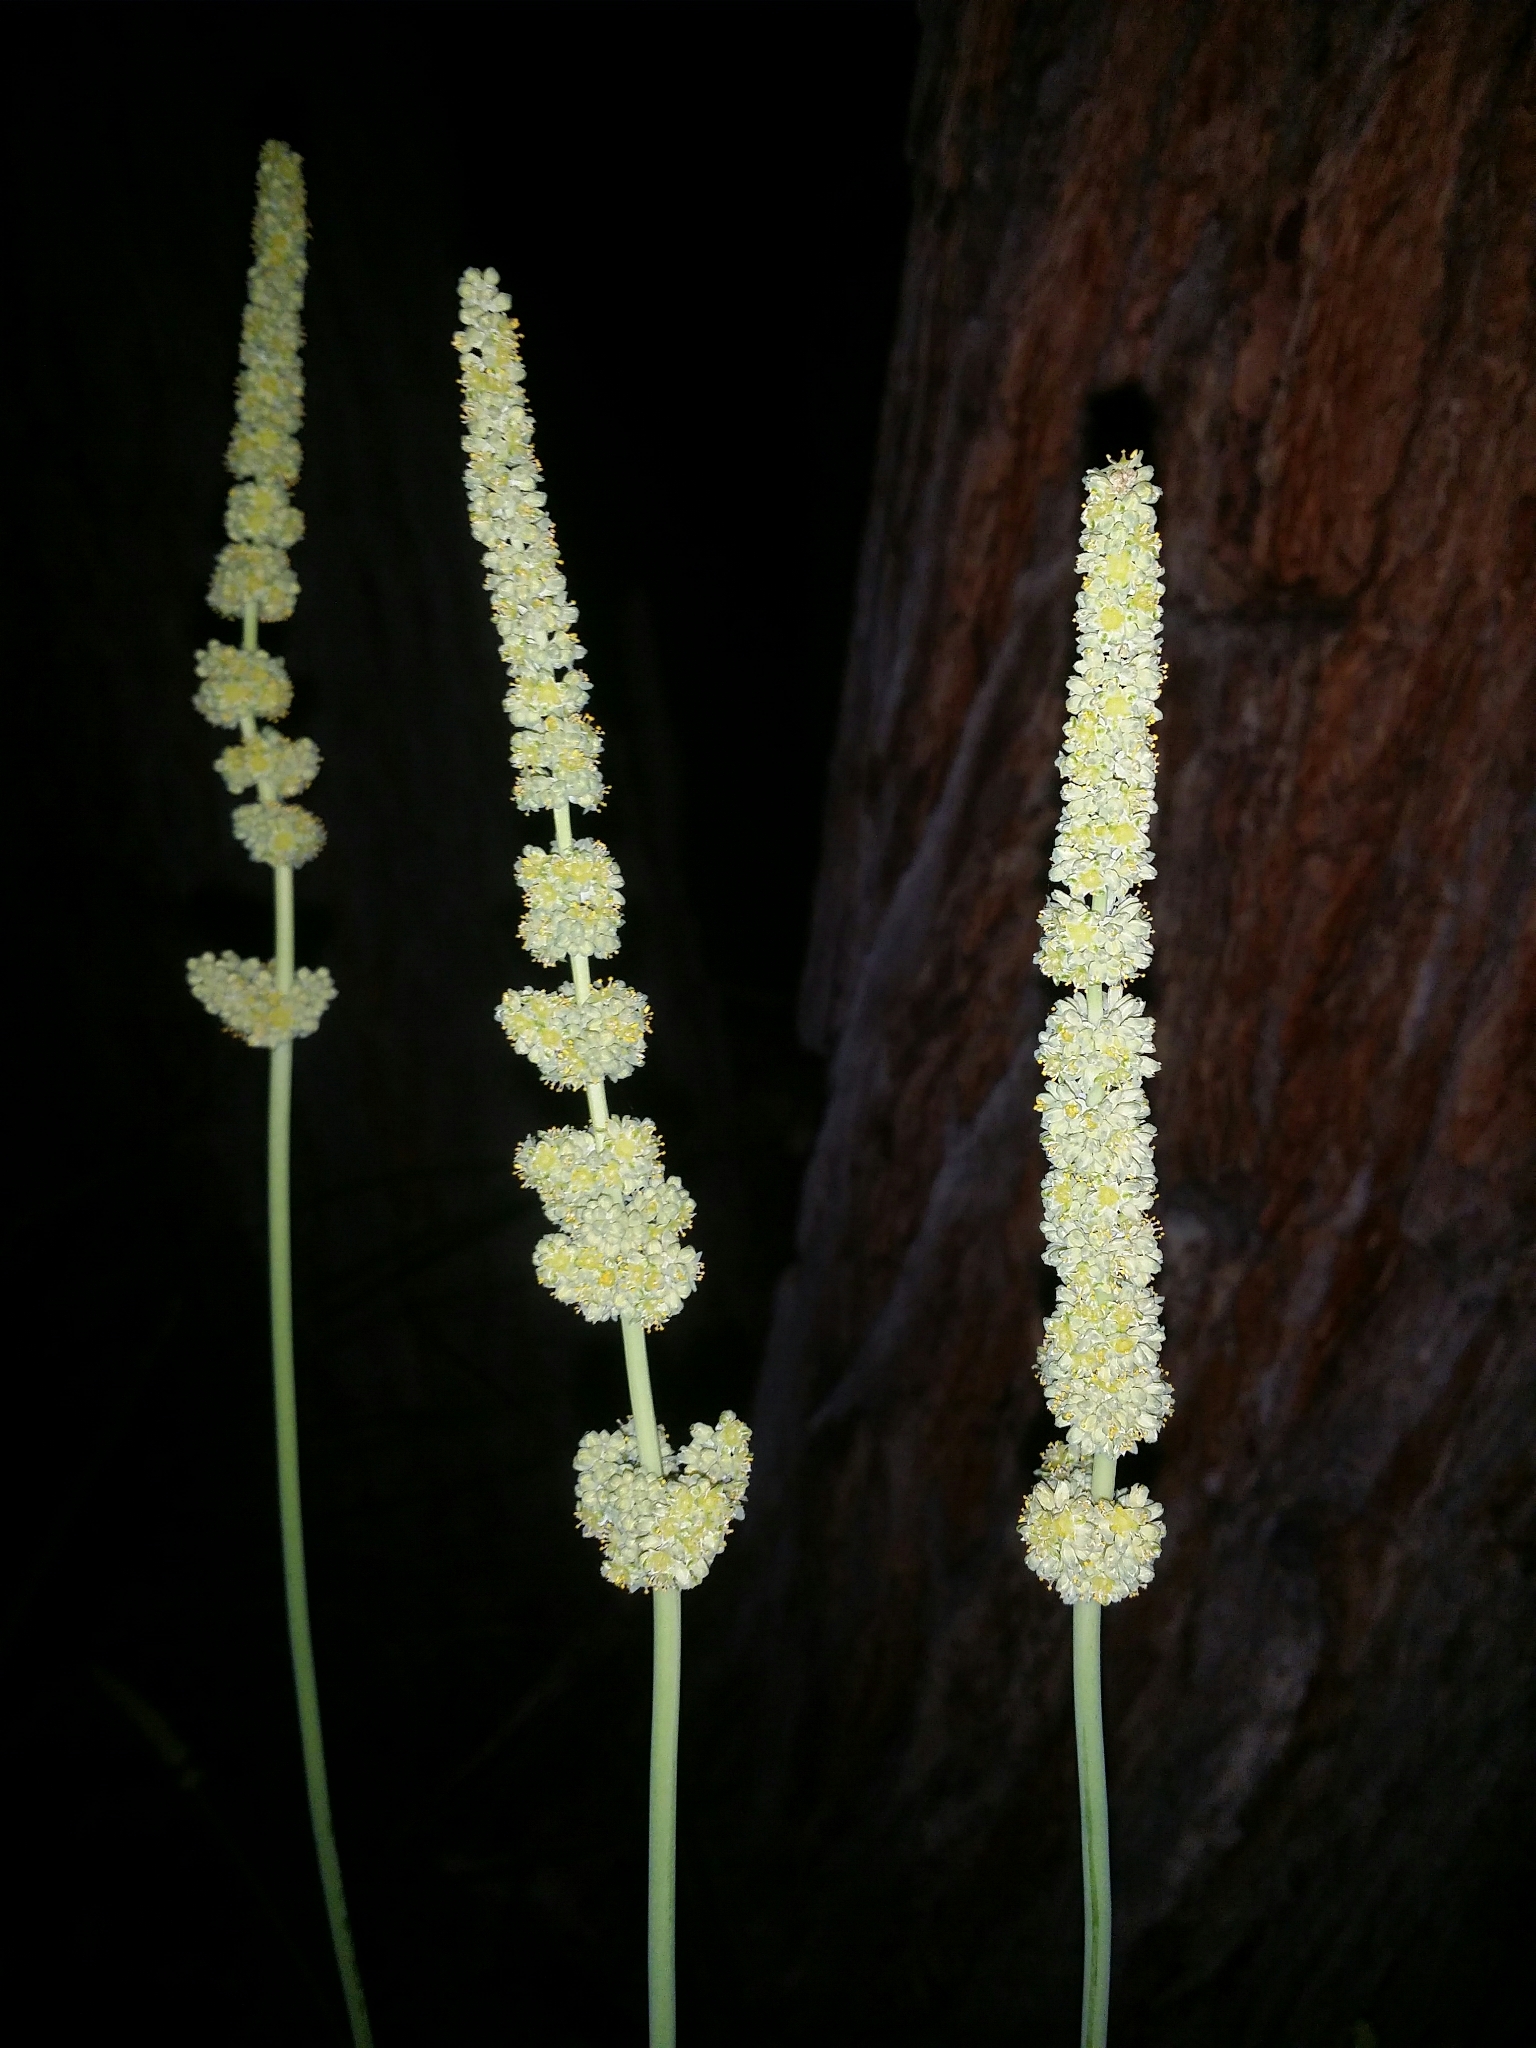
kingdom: Plantae
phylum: Tracheophyta
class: Liliopsida
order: Asparagales
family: Asparagaceae
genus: Lomandra
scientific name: Lomandra preissii
